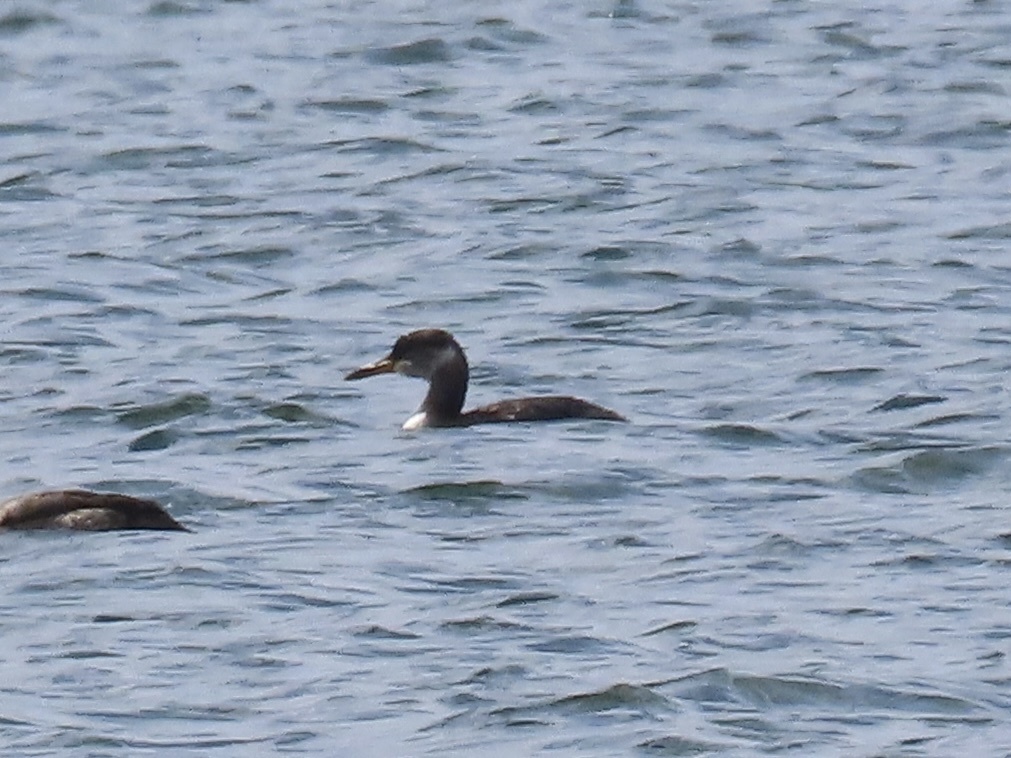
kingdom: Animalia
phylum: Chordata
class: Aves
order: Podicipediformes
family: Podicipedidae
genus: Podiceps
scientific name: Podiceps grisegena
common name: Red-necked grebe
